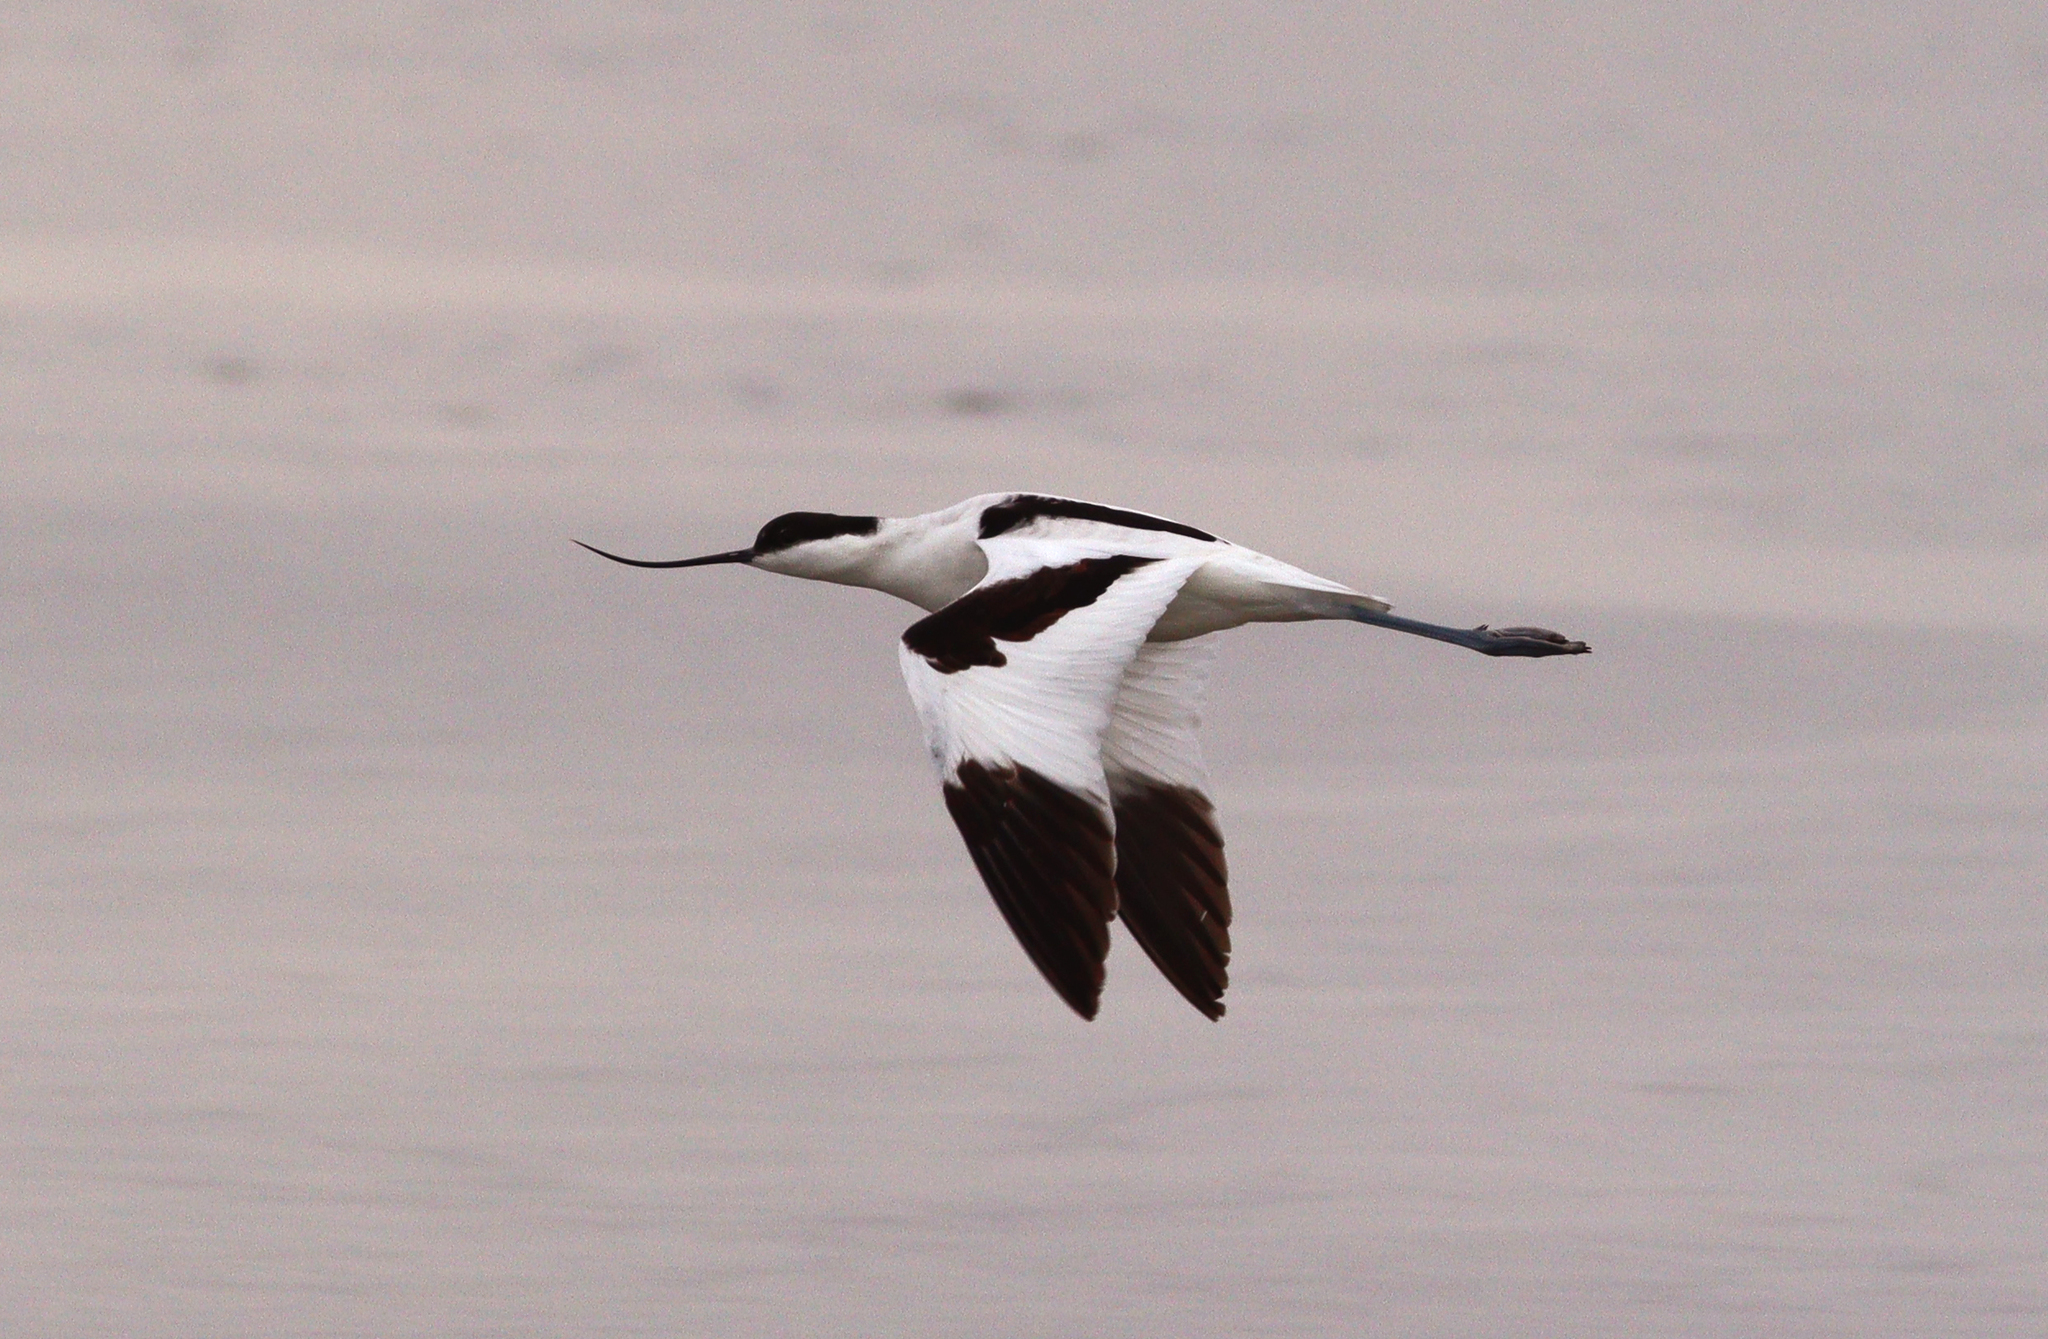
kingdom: Animalia
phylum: Chordata
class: Aves
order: Charadriiformes
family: Recurvirostridae
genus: Recurvirostra
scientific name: Recurvirostra avosetta
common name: Pied avocet
